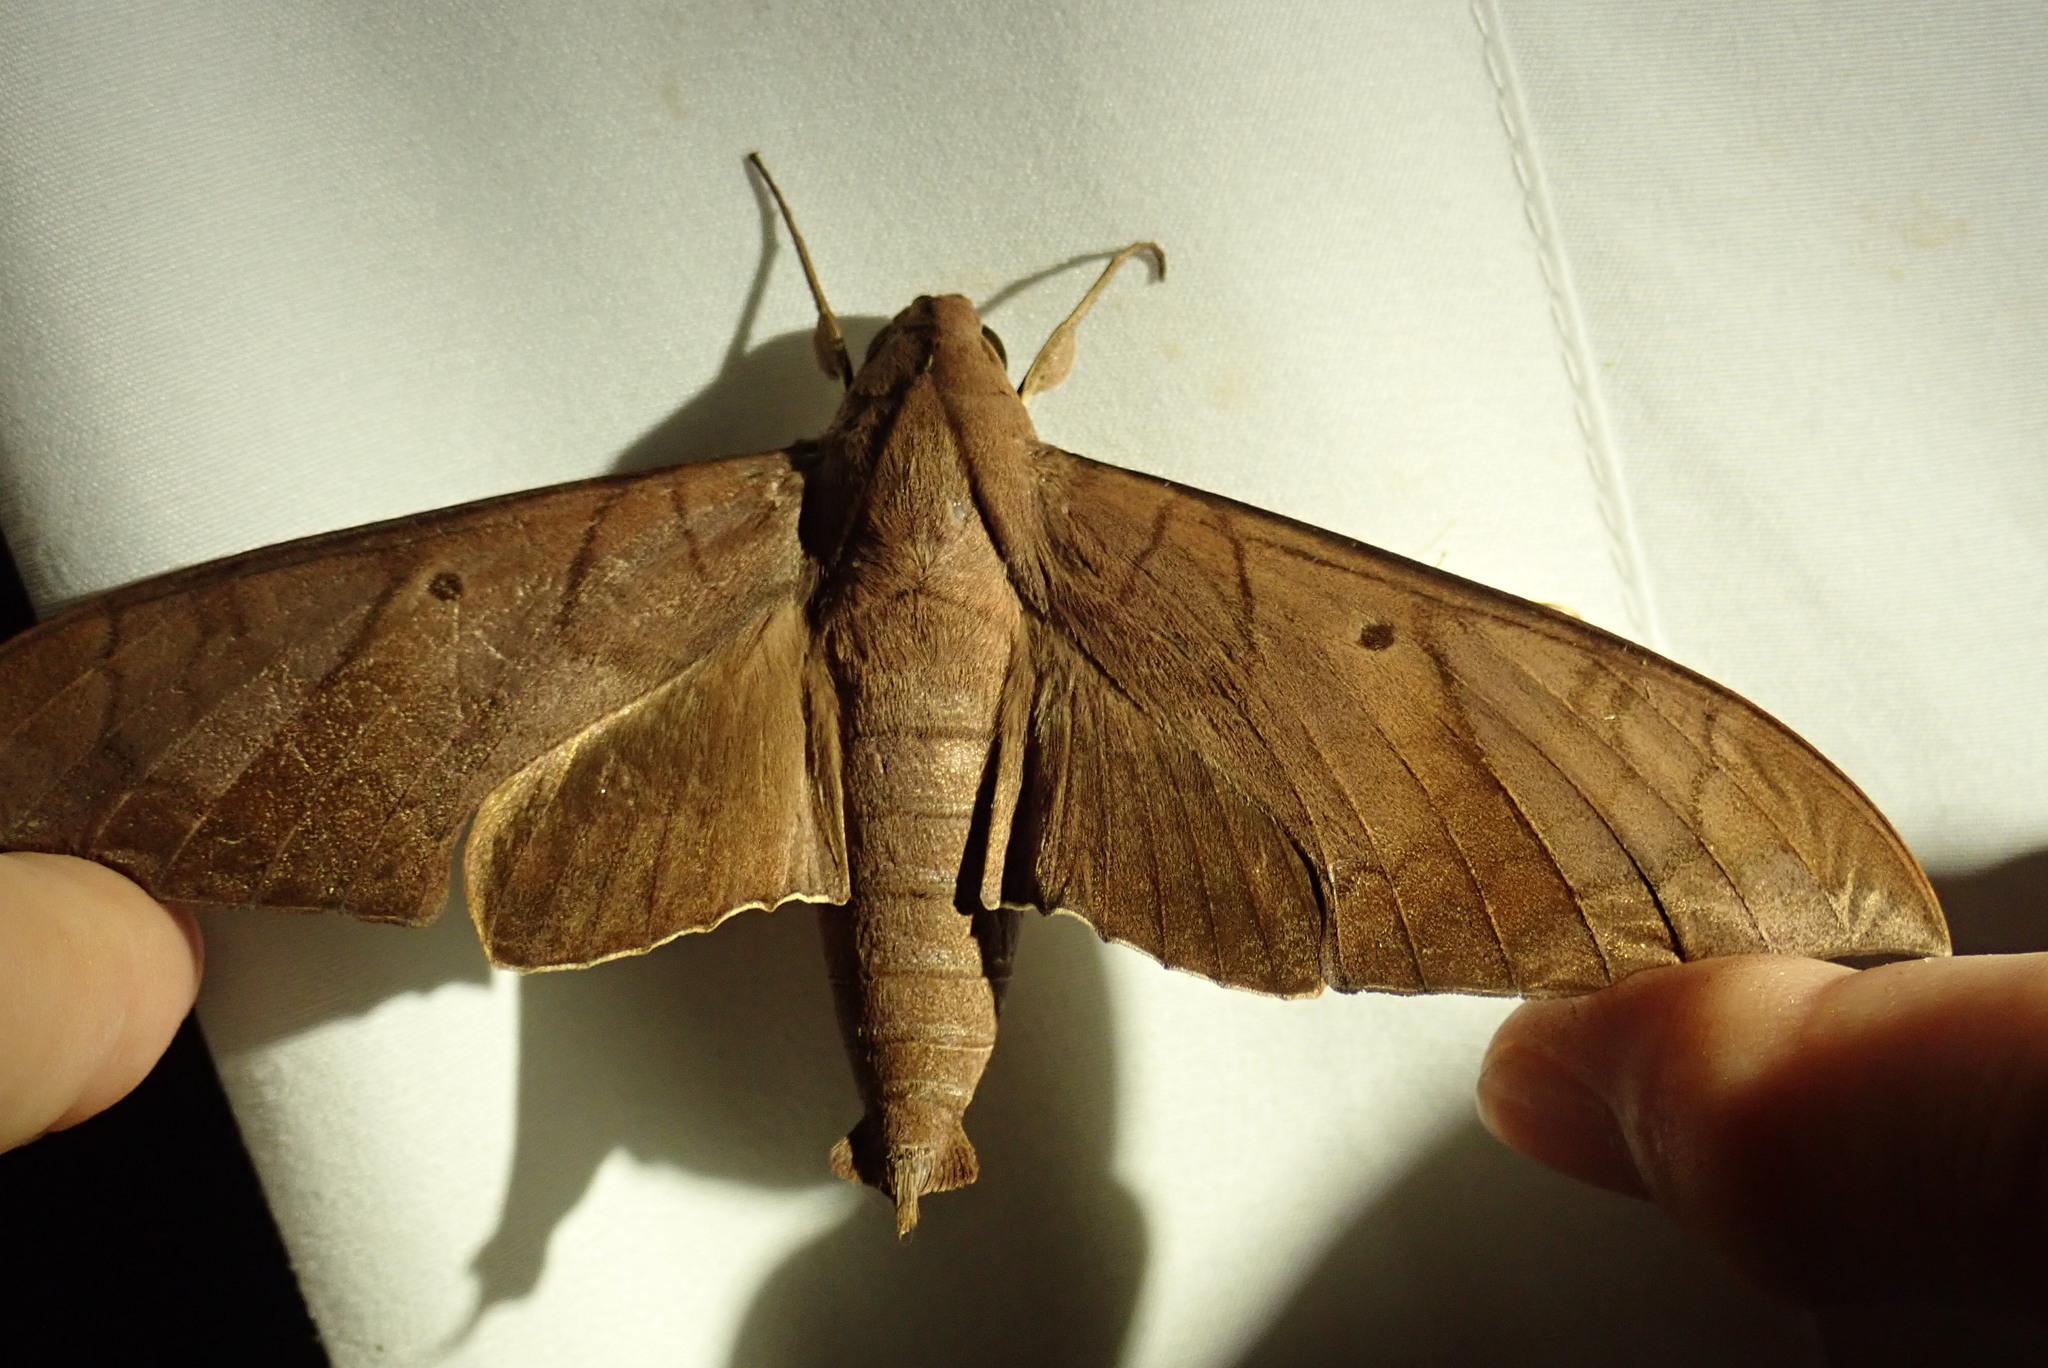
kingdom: Animalia
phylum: Arthropoda
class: Insecta
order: Lepidoptera
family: Sphingidae
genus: Pachylia
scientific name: Pachylia darceta
